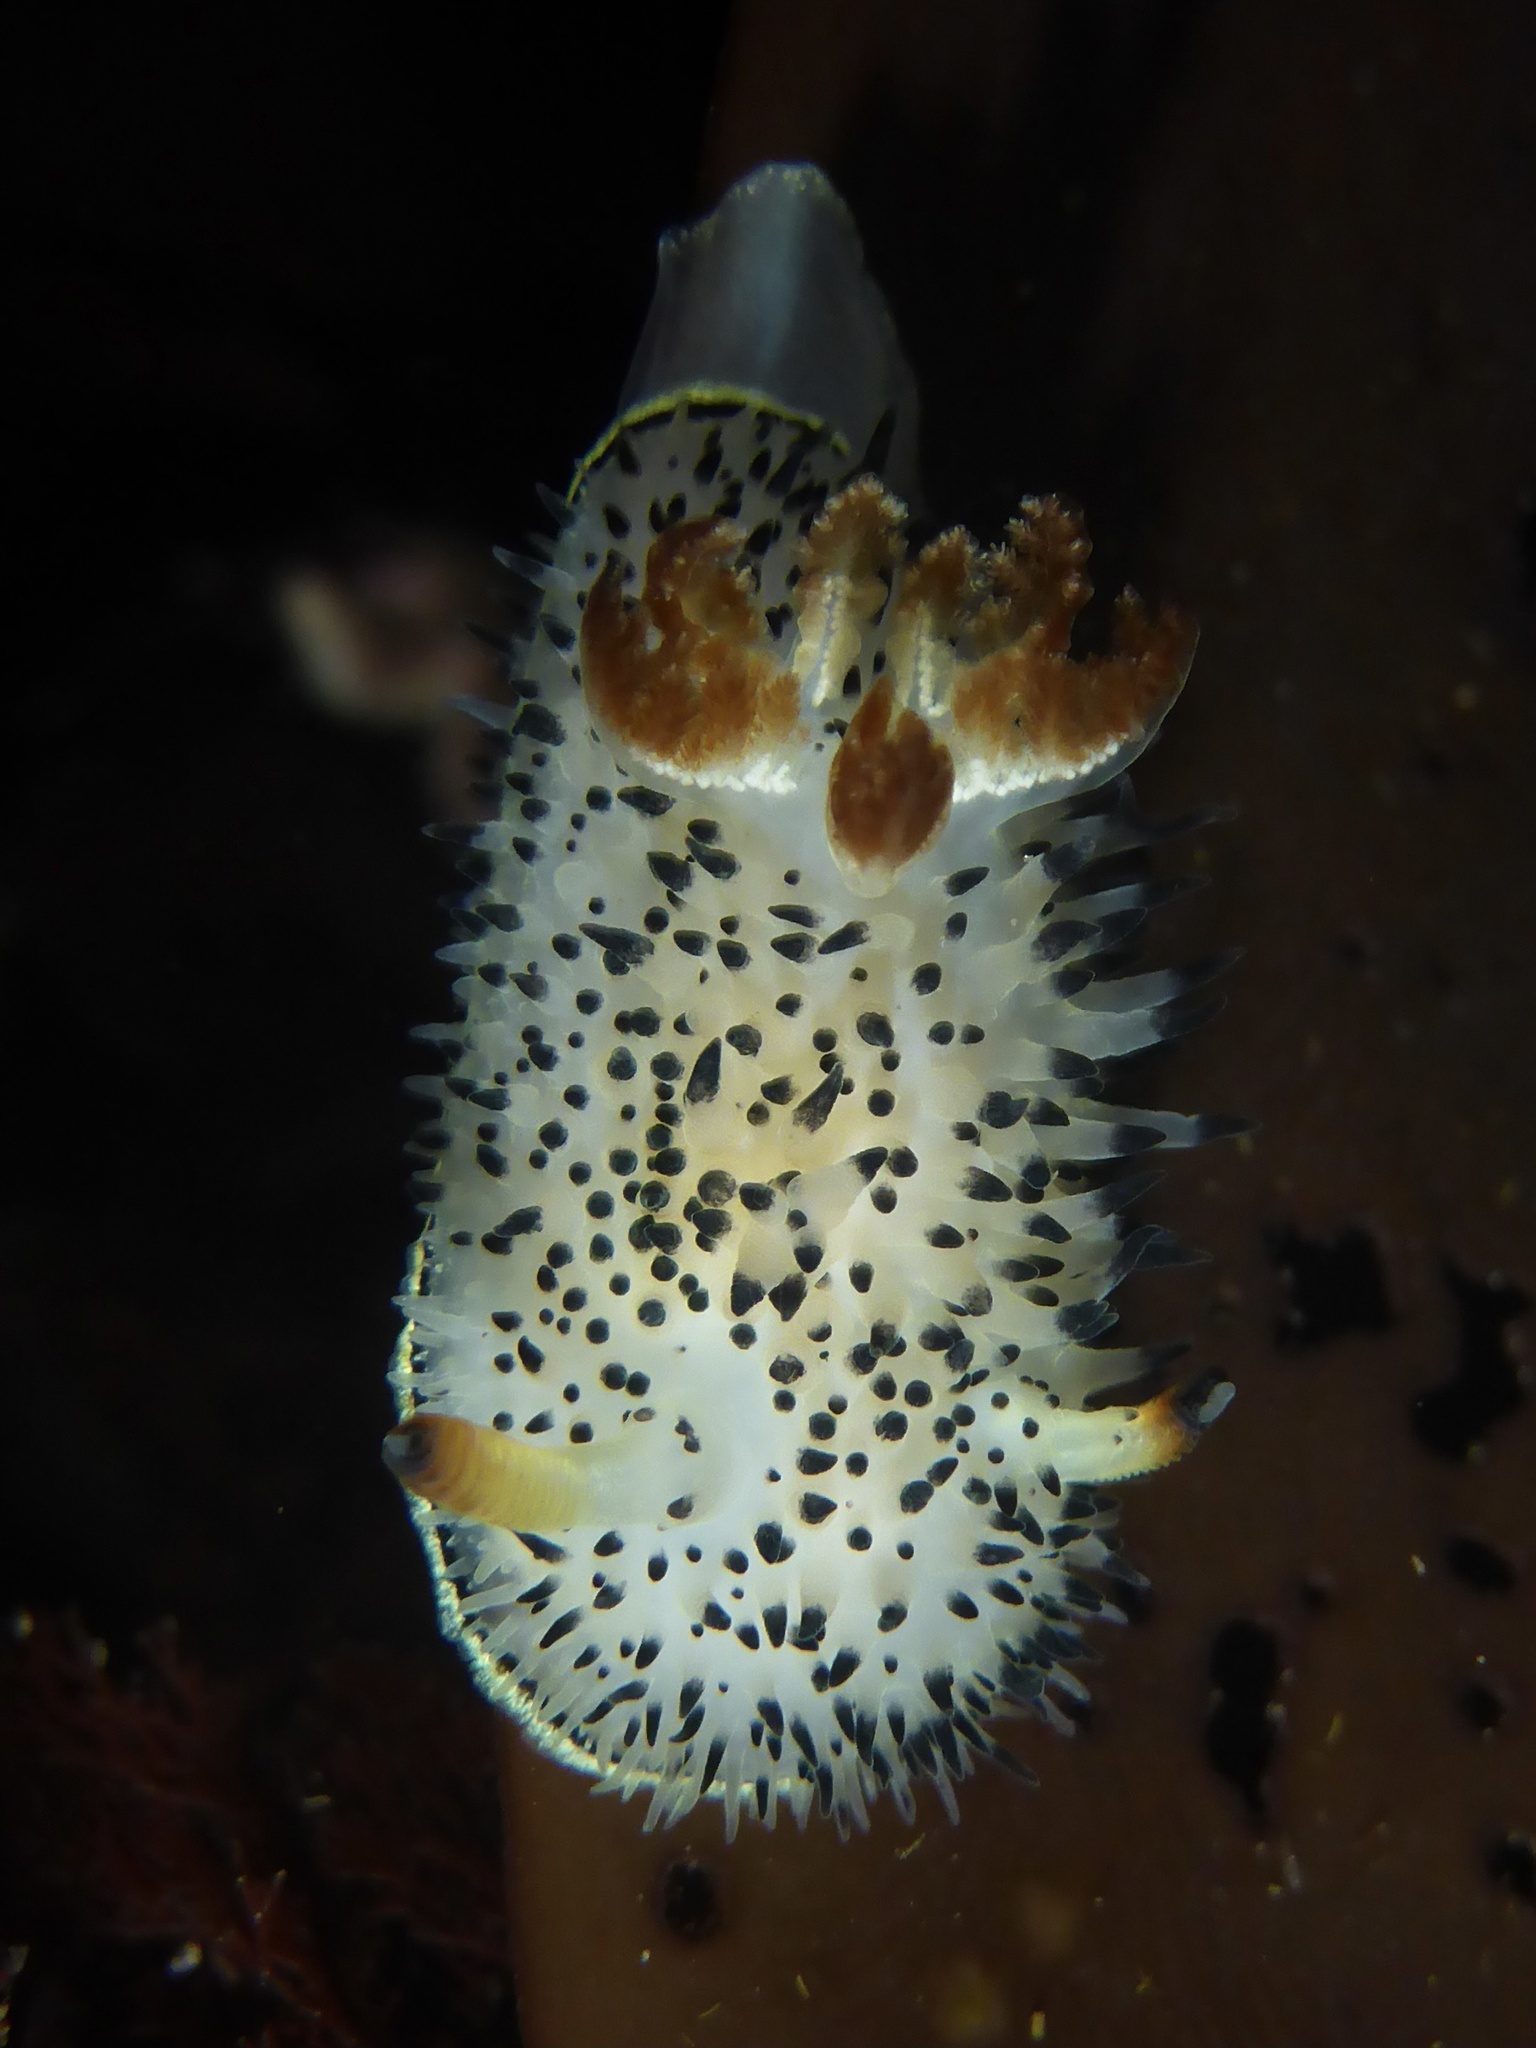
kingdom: Animalia
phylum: Mollusca
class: Gastropoda
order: Nudibranchia
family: Onchidorididae
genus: Acanthodoris
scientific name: Acanthodoris rhodoceras
